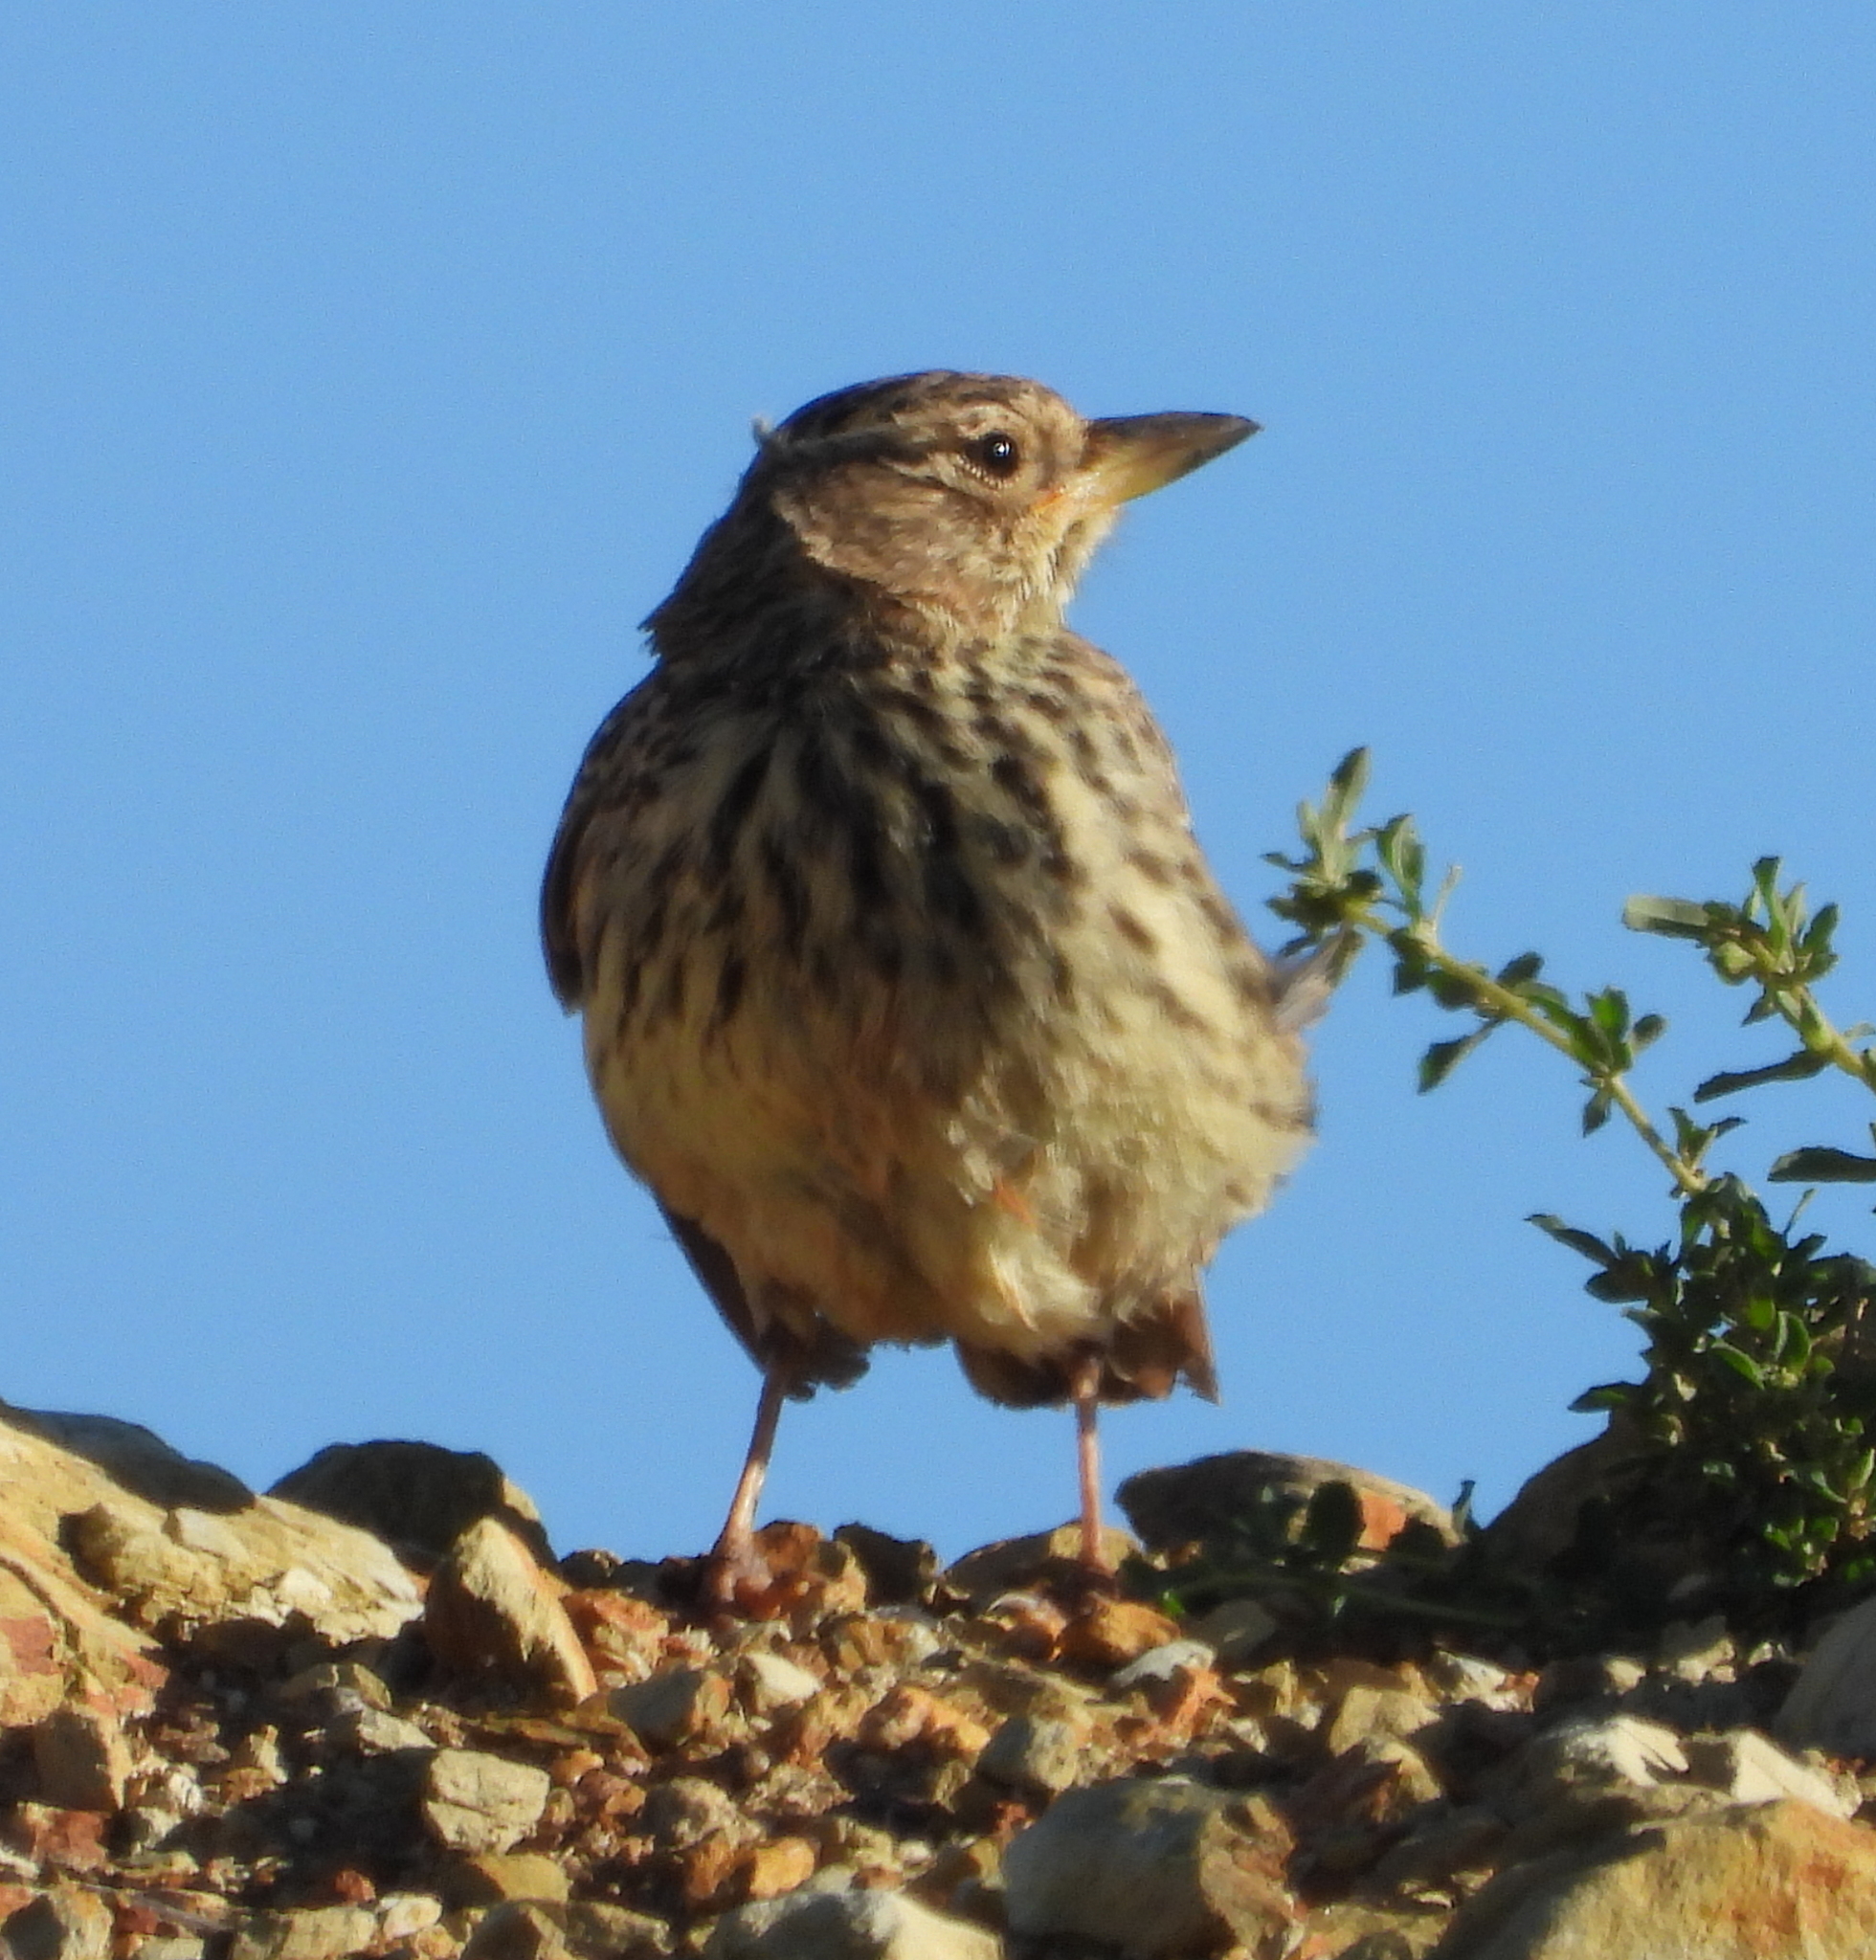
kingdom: Animalia
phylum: Chordata
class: Aves
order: Passeriformes
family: Alaudidae
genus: Galerida
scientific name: Galerida magnirostris
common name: Large-billed lark
